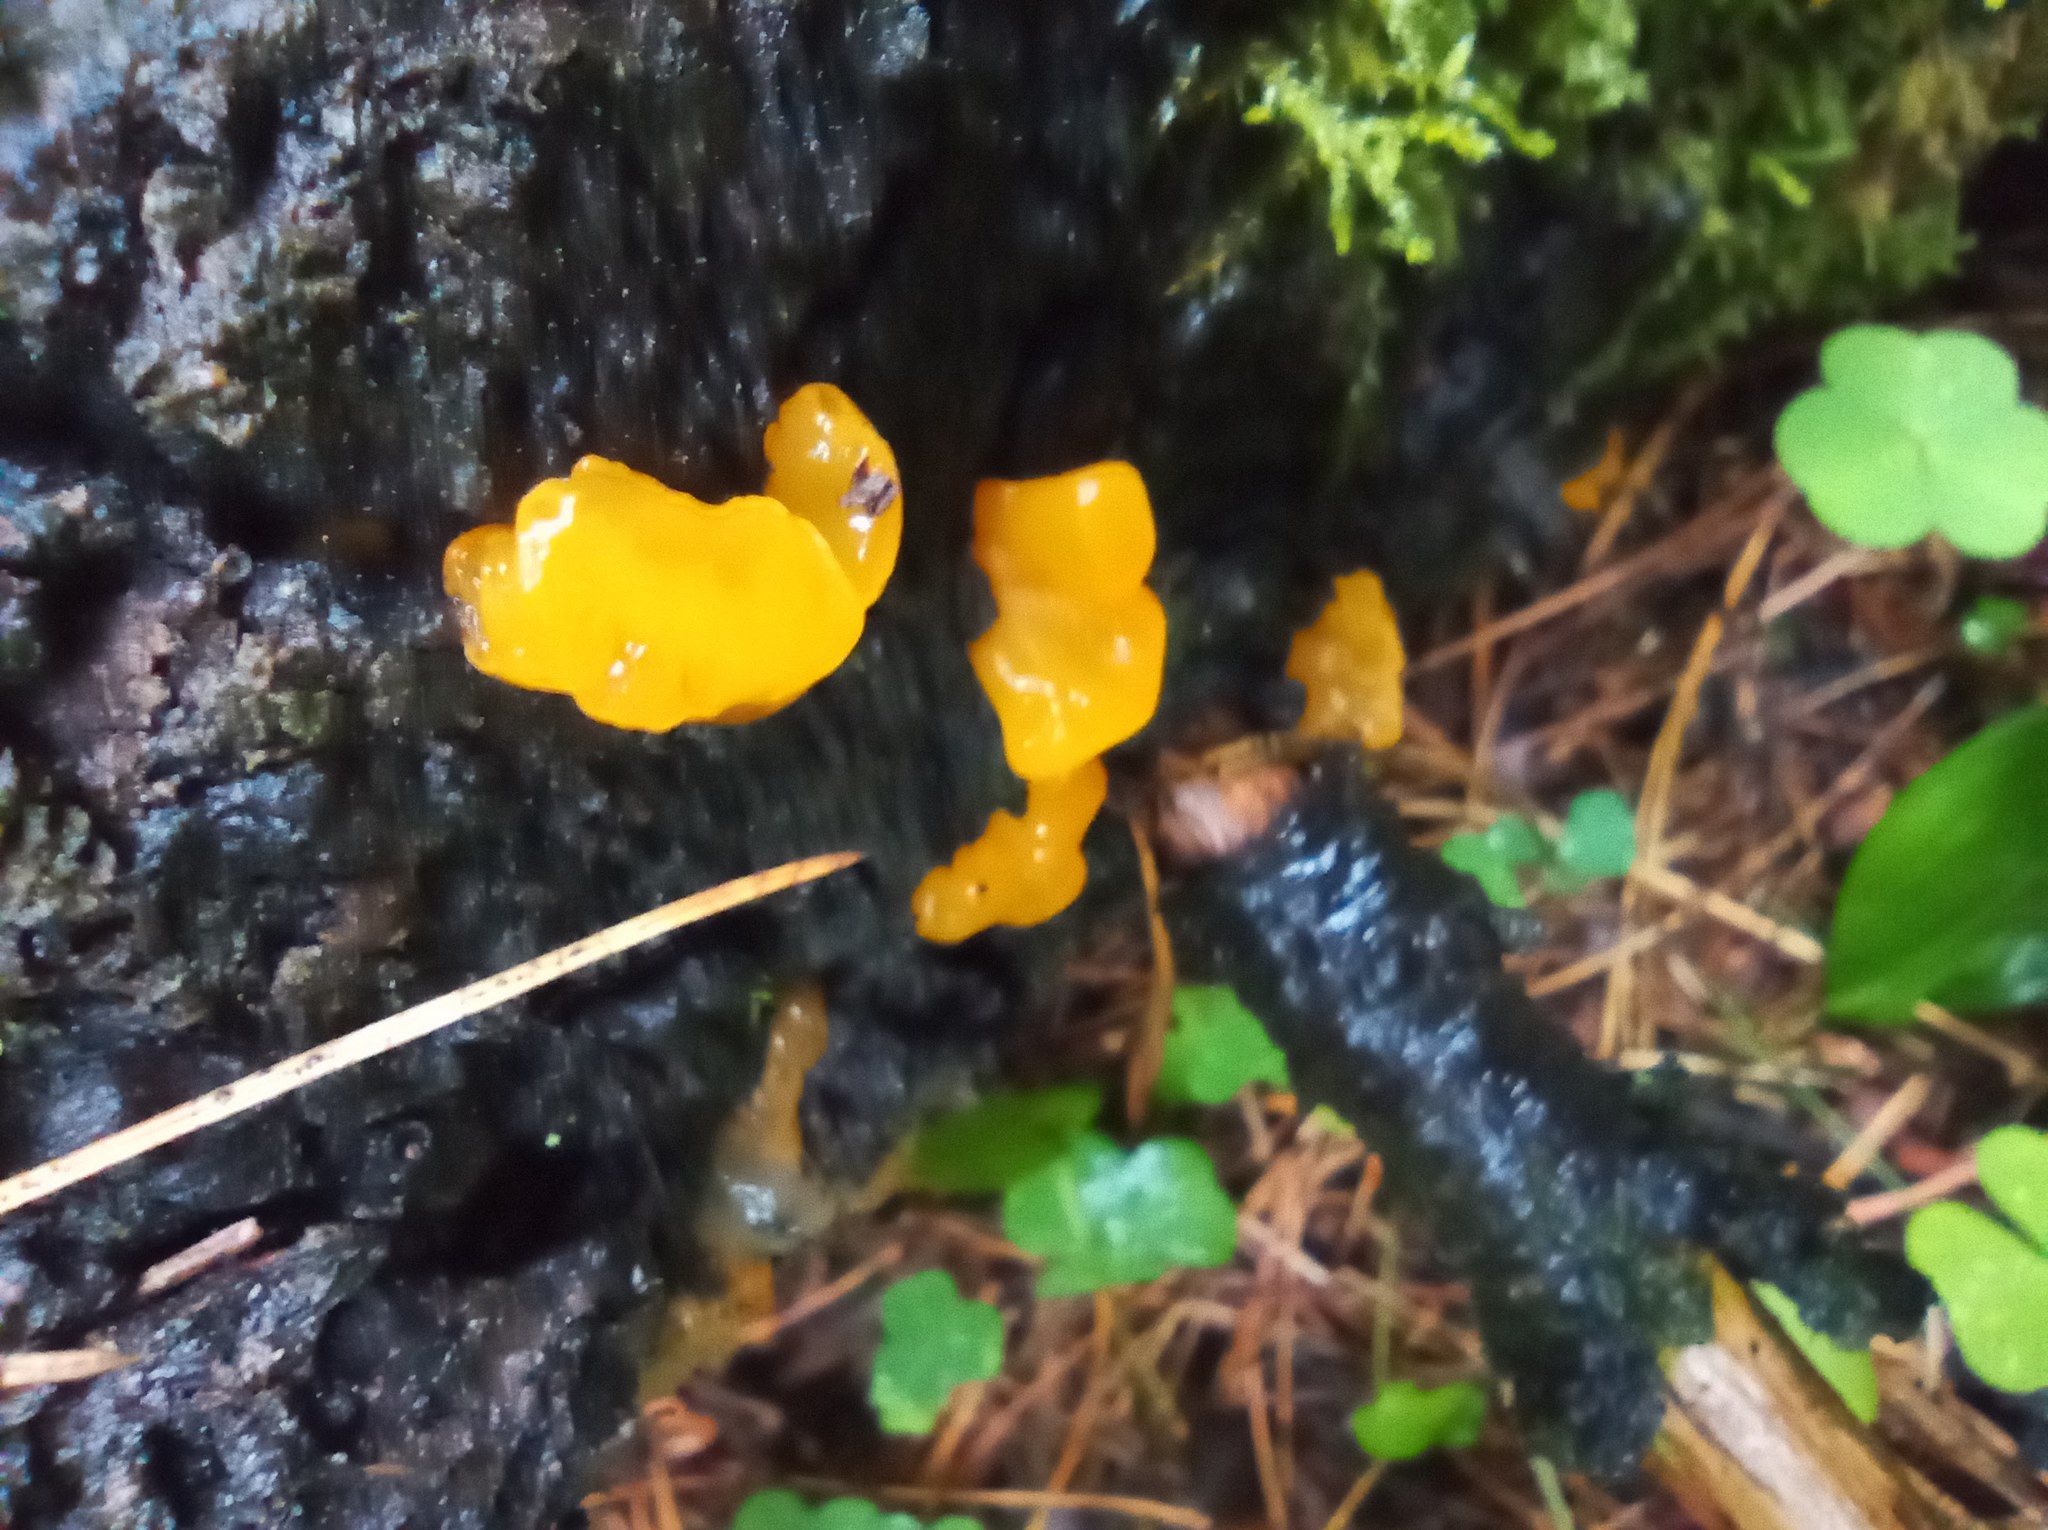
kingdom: Fungi
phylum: Basidiomycota
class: Dacrymycetes
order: Dacrymycetales
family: Dacrymycetaceae
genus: Dacrymyces
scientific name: Dacrymyces chrysospermus
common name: Orange jelly spot
